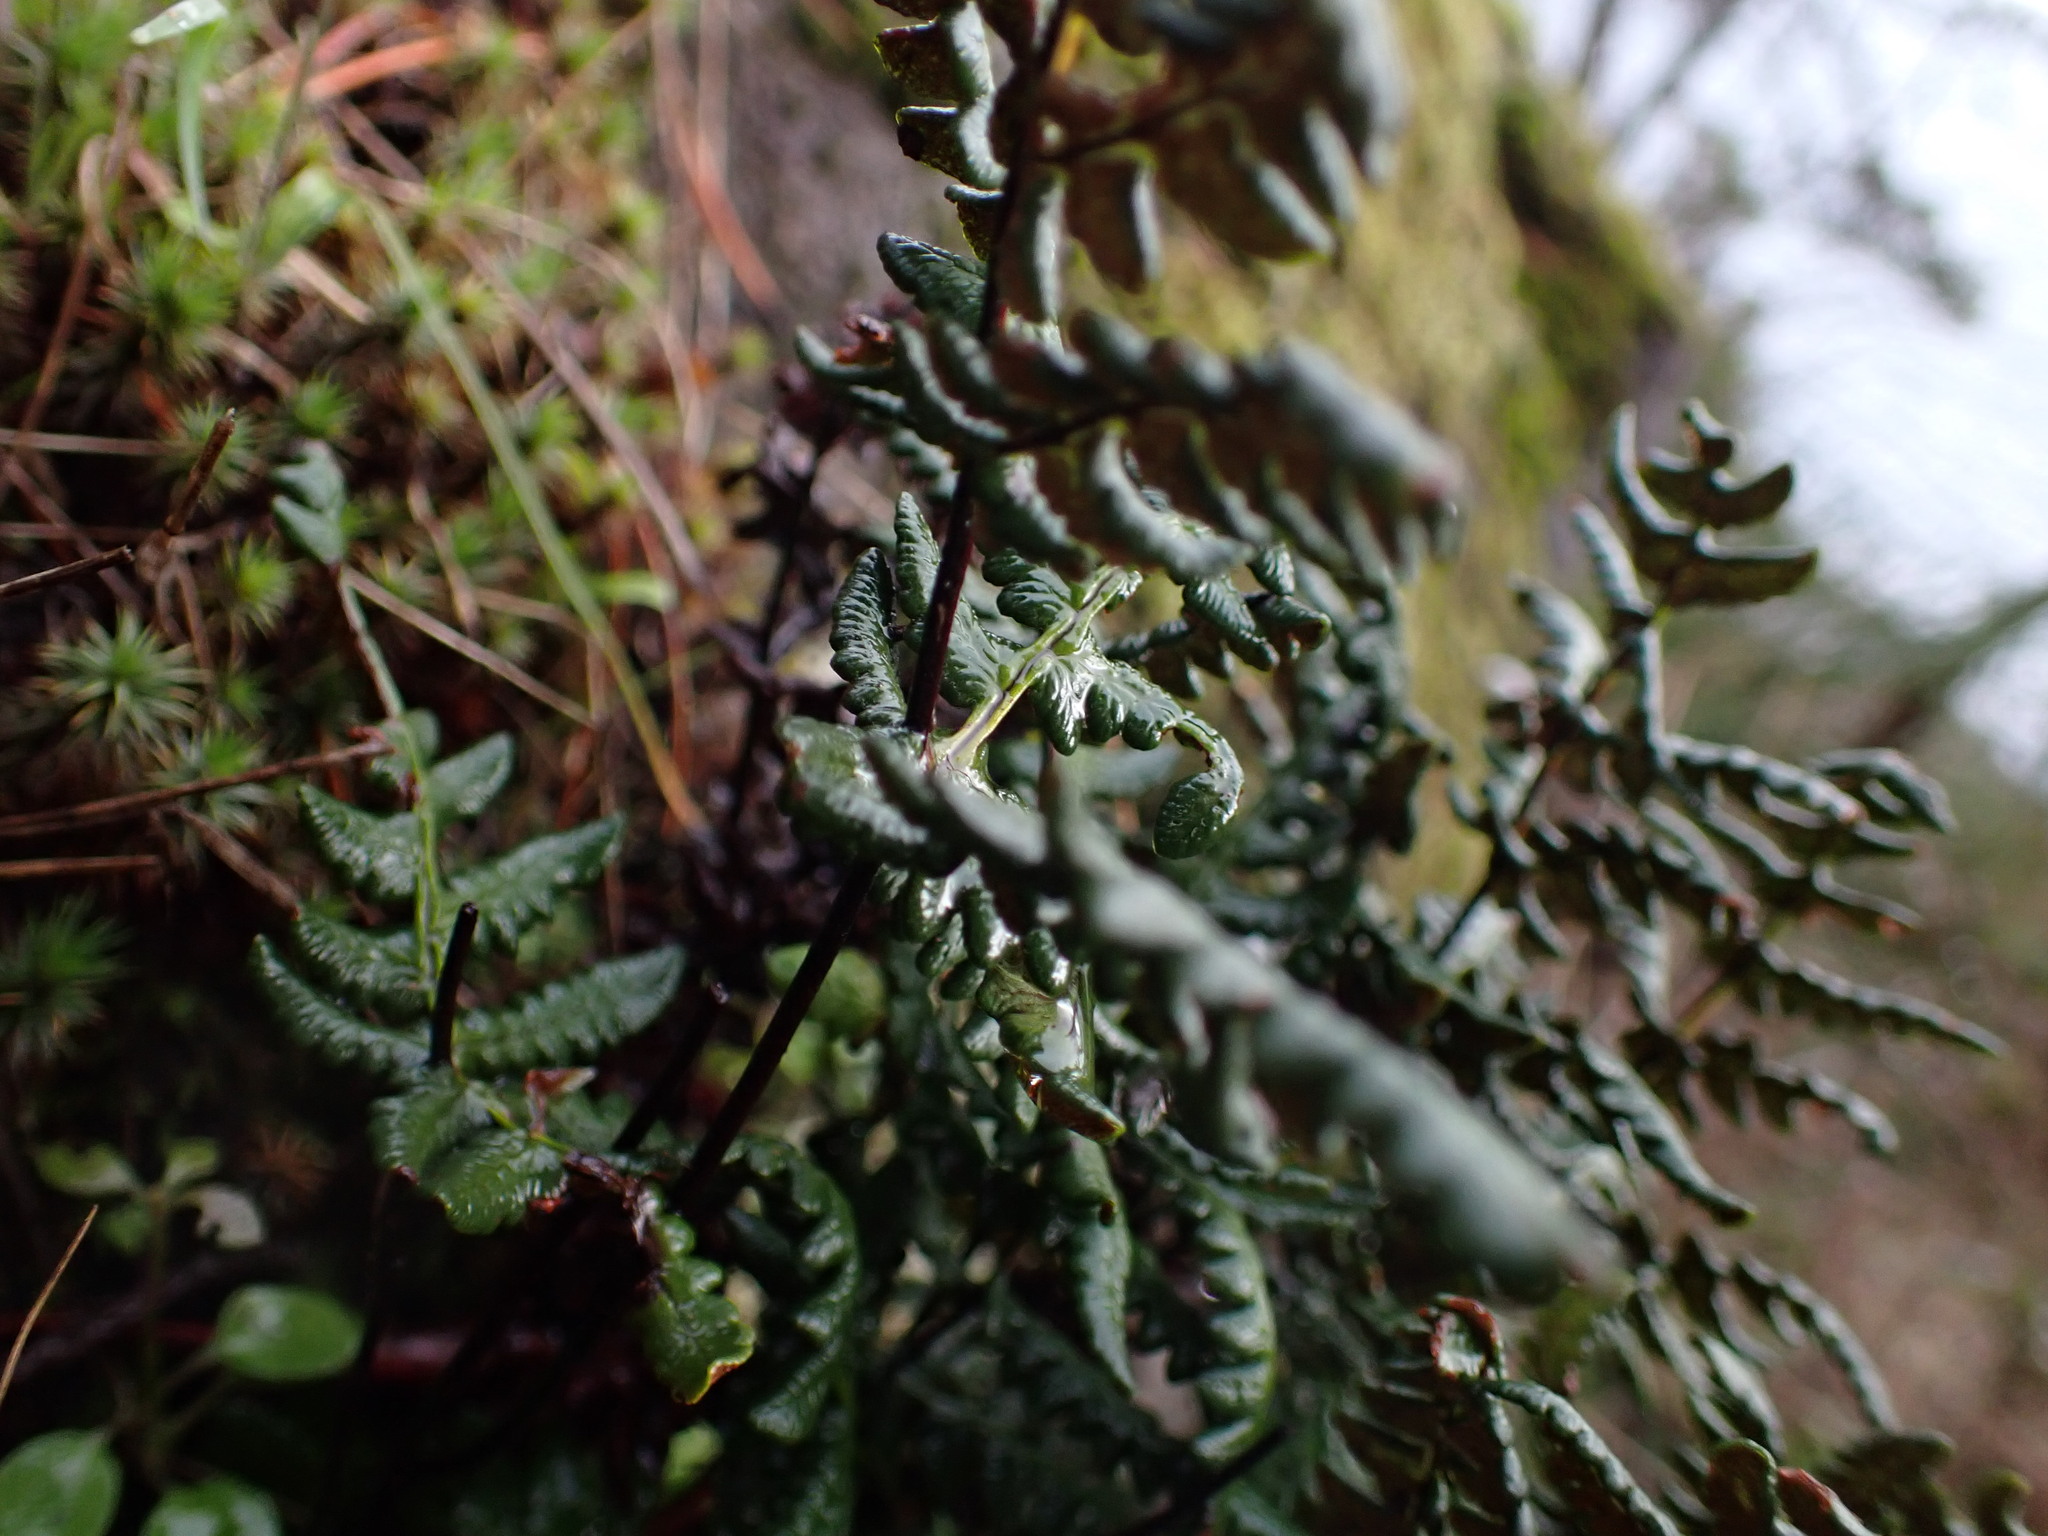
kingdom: Plantae
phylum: Tracheophyta
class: Polypodiopsida
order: Polypodiales
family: Pteridaceae
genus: Pentagramma
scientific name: Pentagramma triangularis
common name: Gold fern
